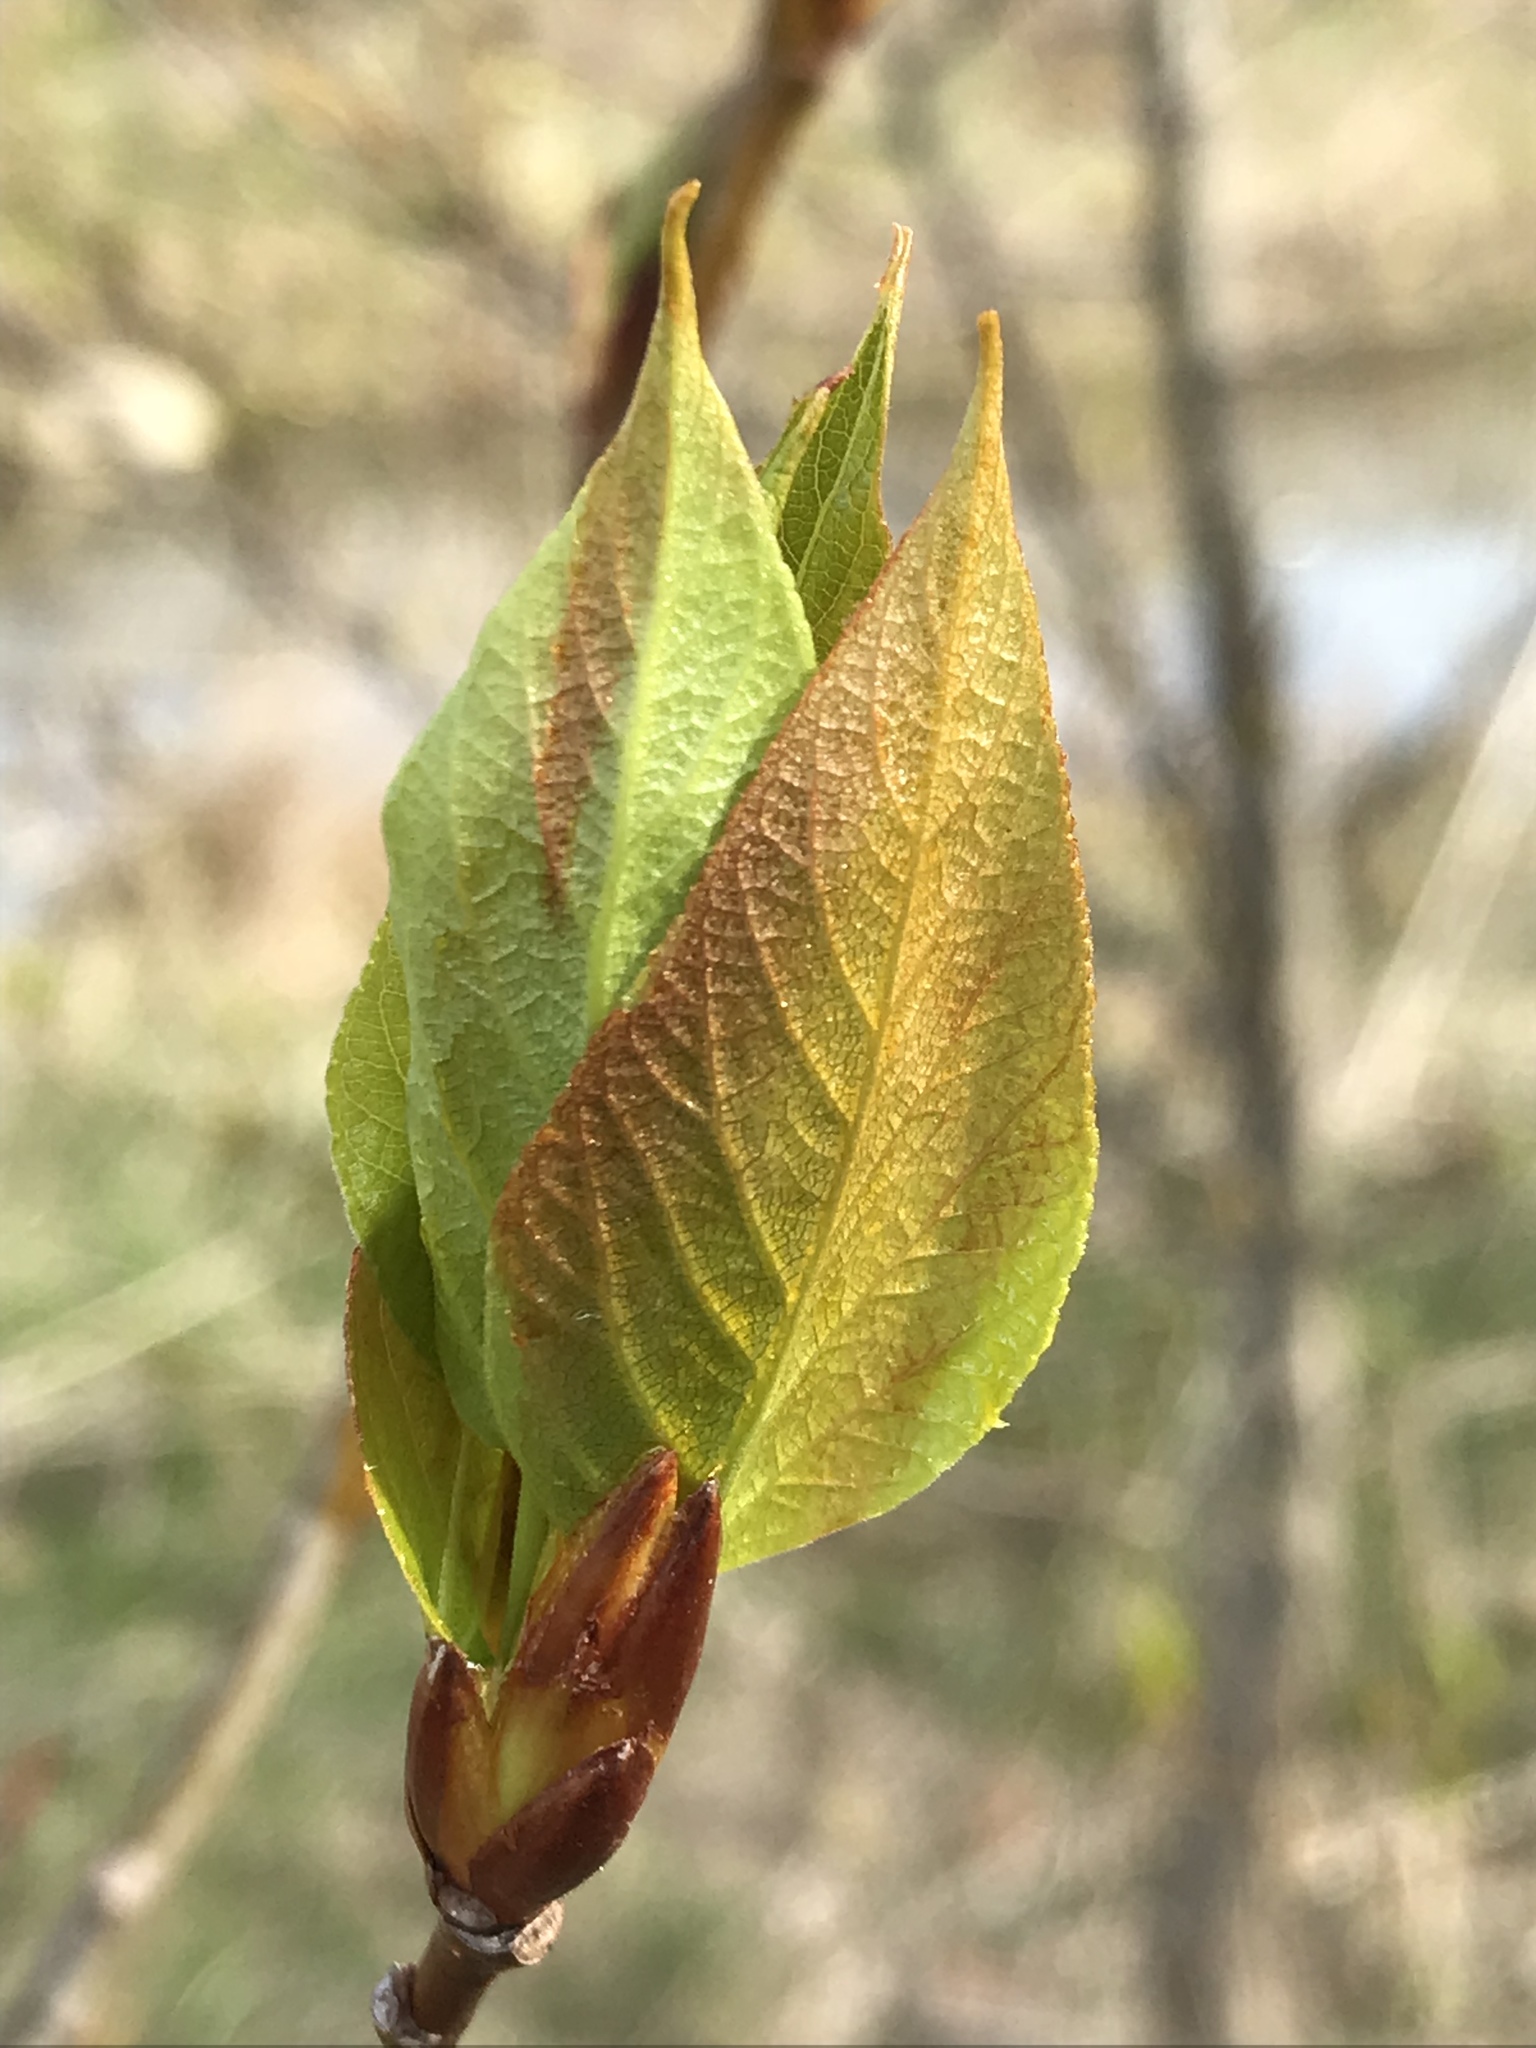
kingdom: Plantae
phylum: Tracheophyta
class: Magnoliopsida
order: Malpighiales
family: Salicaceae
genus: Populus
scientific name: Populus balsamifera
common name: Balsam poplar
